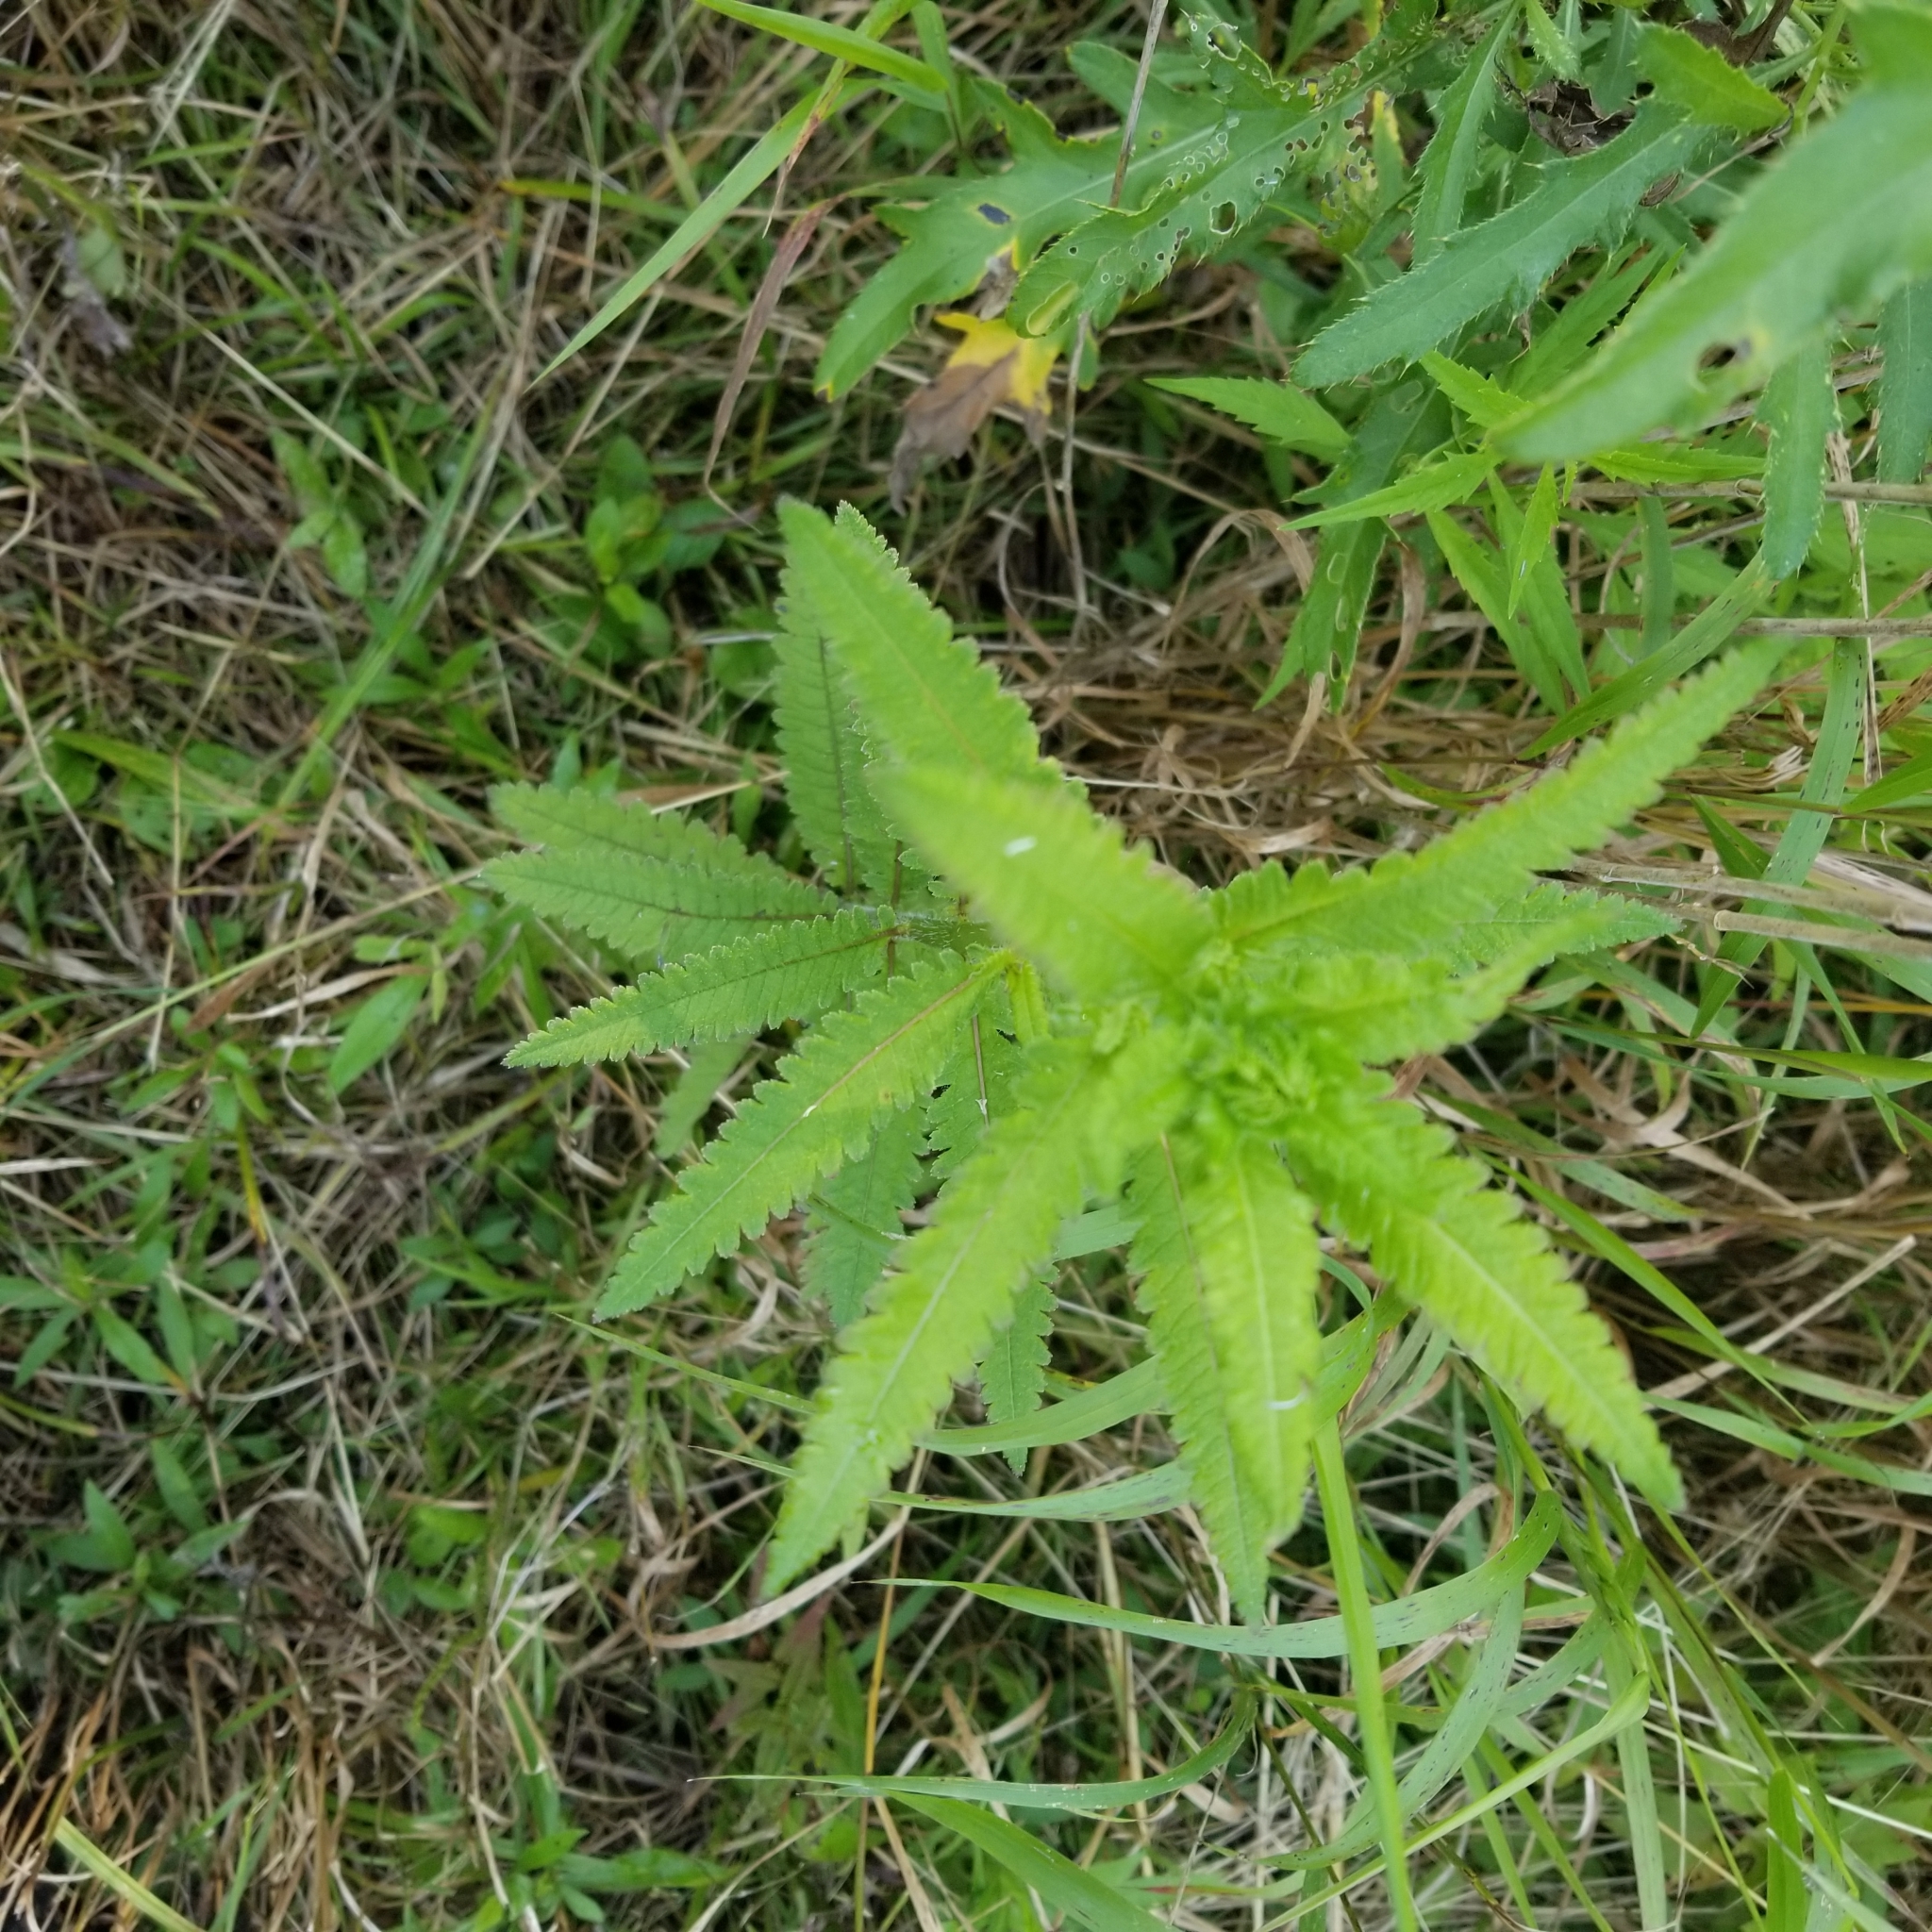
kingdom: Plantae
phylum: Tracheophyta
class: Magnoliopsida
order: Lamiales
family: Orobanchaceae
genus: Pedicularis
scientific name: Pedicularis lanceolata
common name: Swamp lousewort
